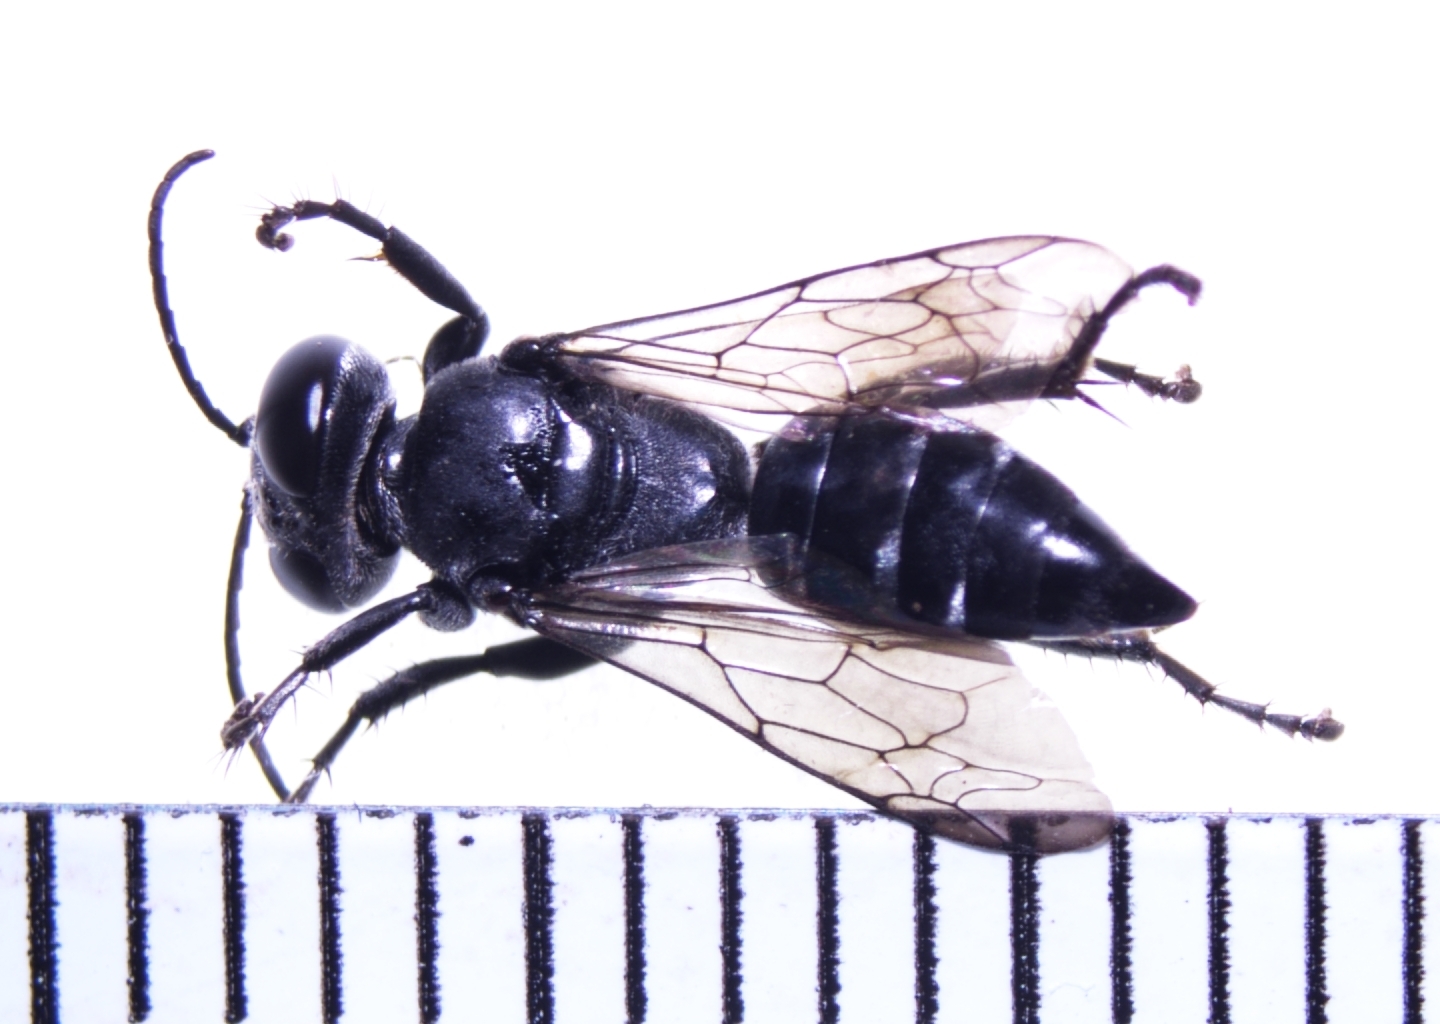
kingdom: Animalia
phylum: Arthropoda
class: Insecta
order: Hymenoptera
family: Crabronidae
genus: Tachysphex
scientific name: Tachysphex fanuiensis
